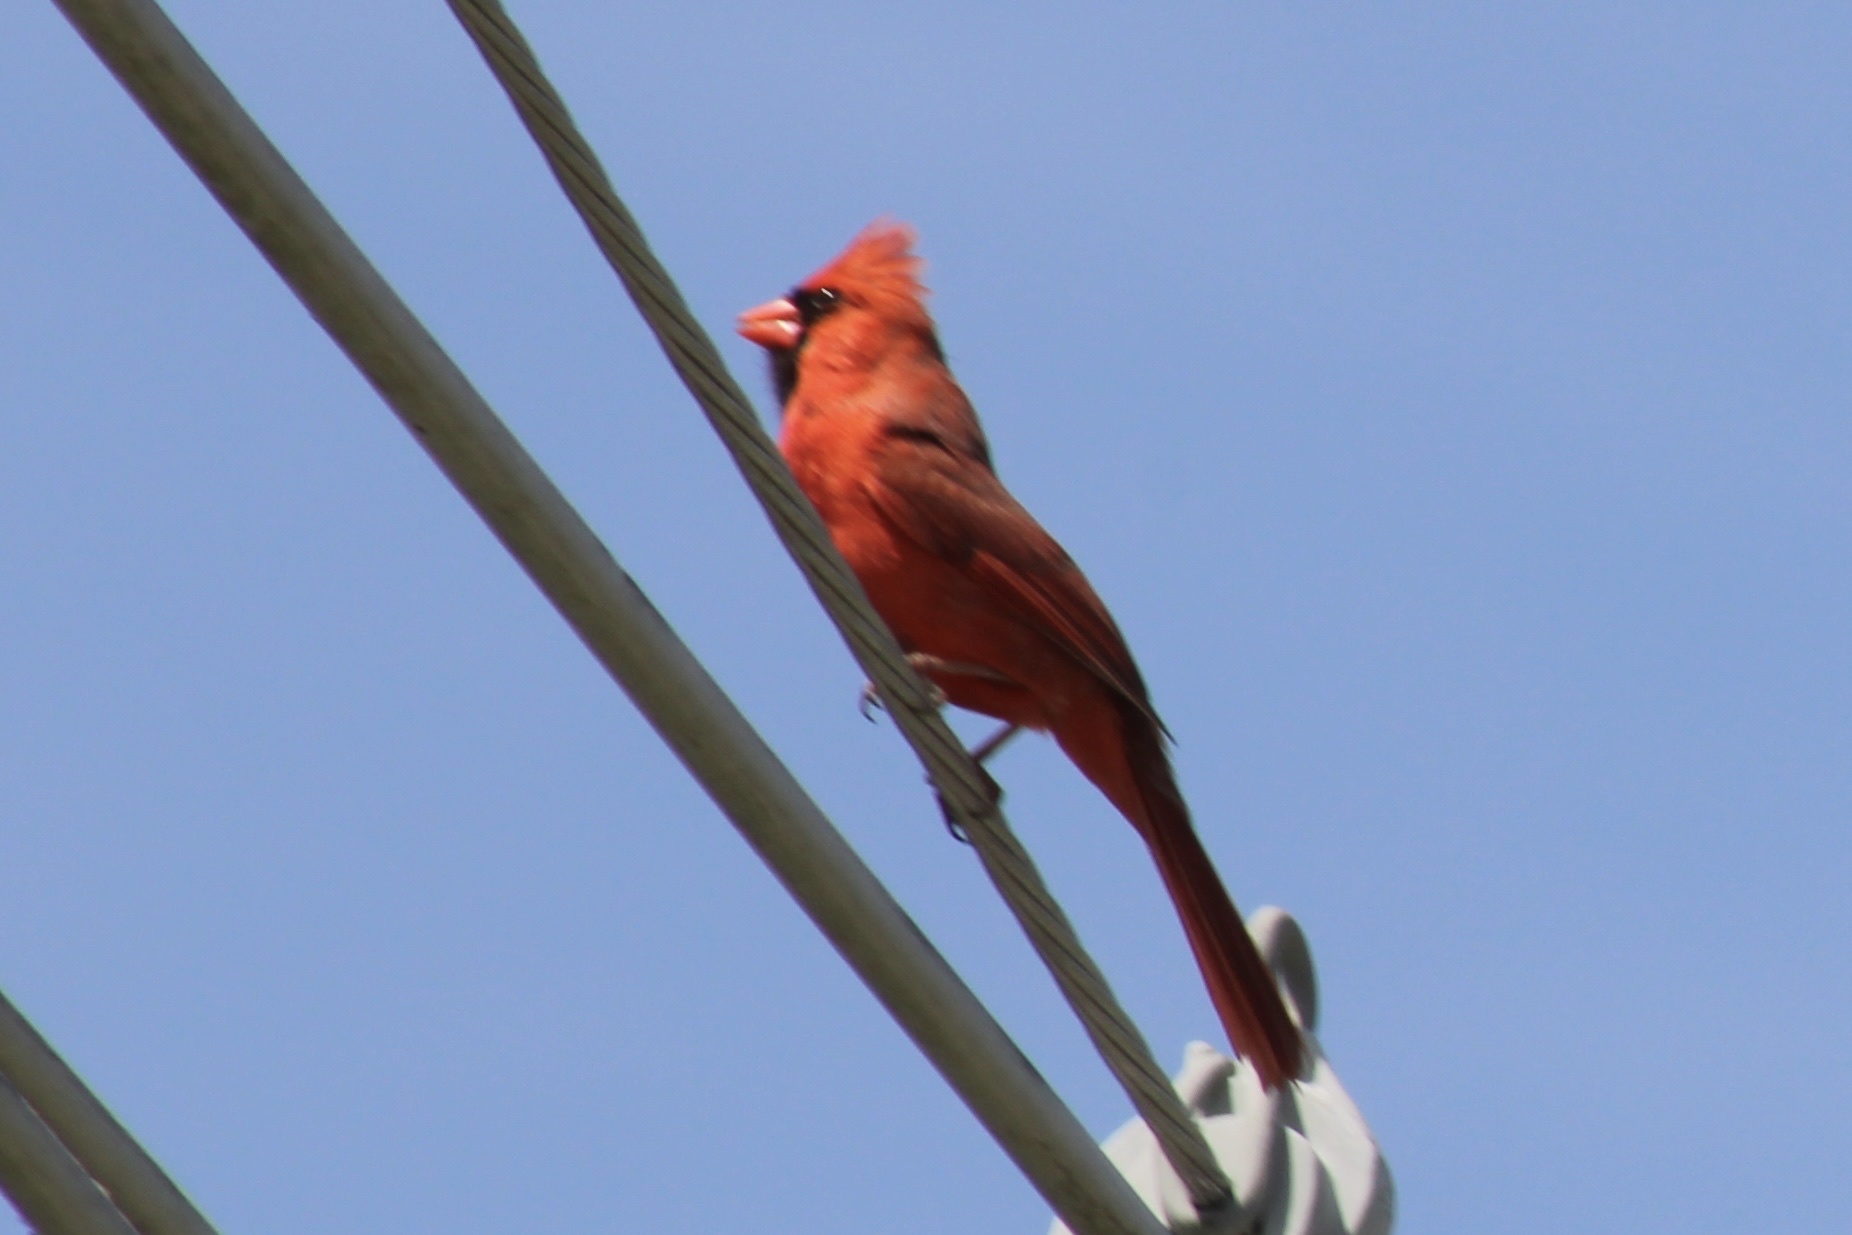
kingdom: Animalia
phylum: Chordata
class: Aves
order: Passeriformes
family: Cardinalidae
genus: Cardinalis
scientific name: Cardinalis cardinalis
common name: Northern cardinal
